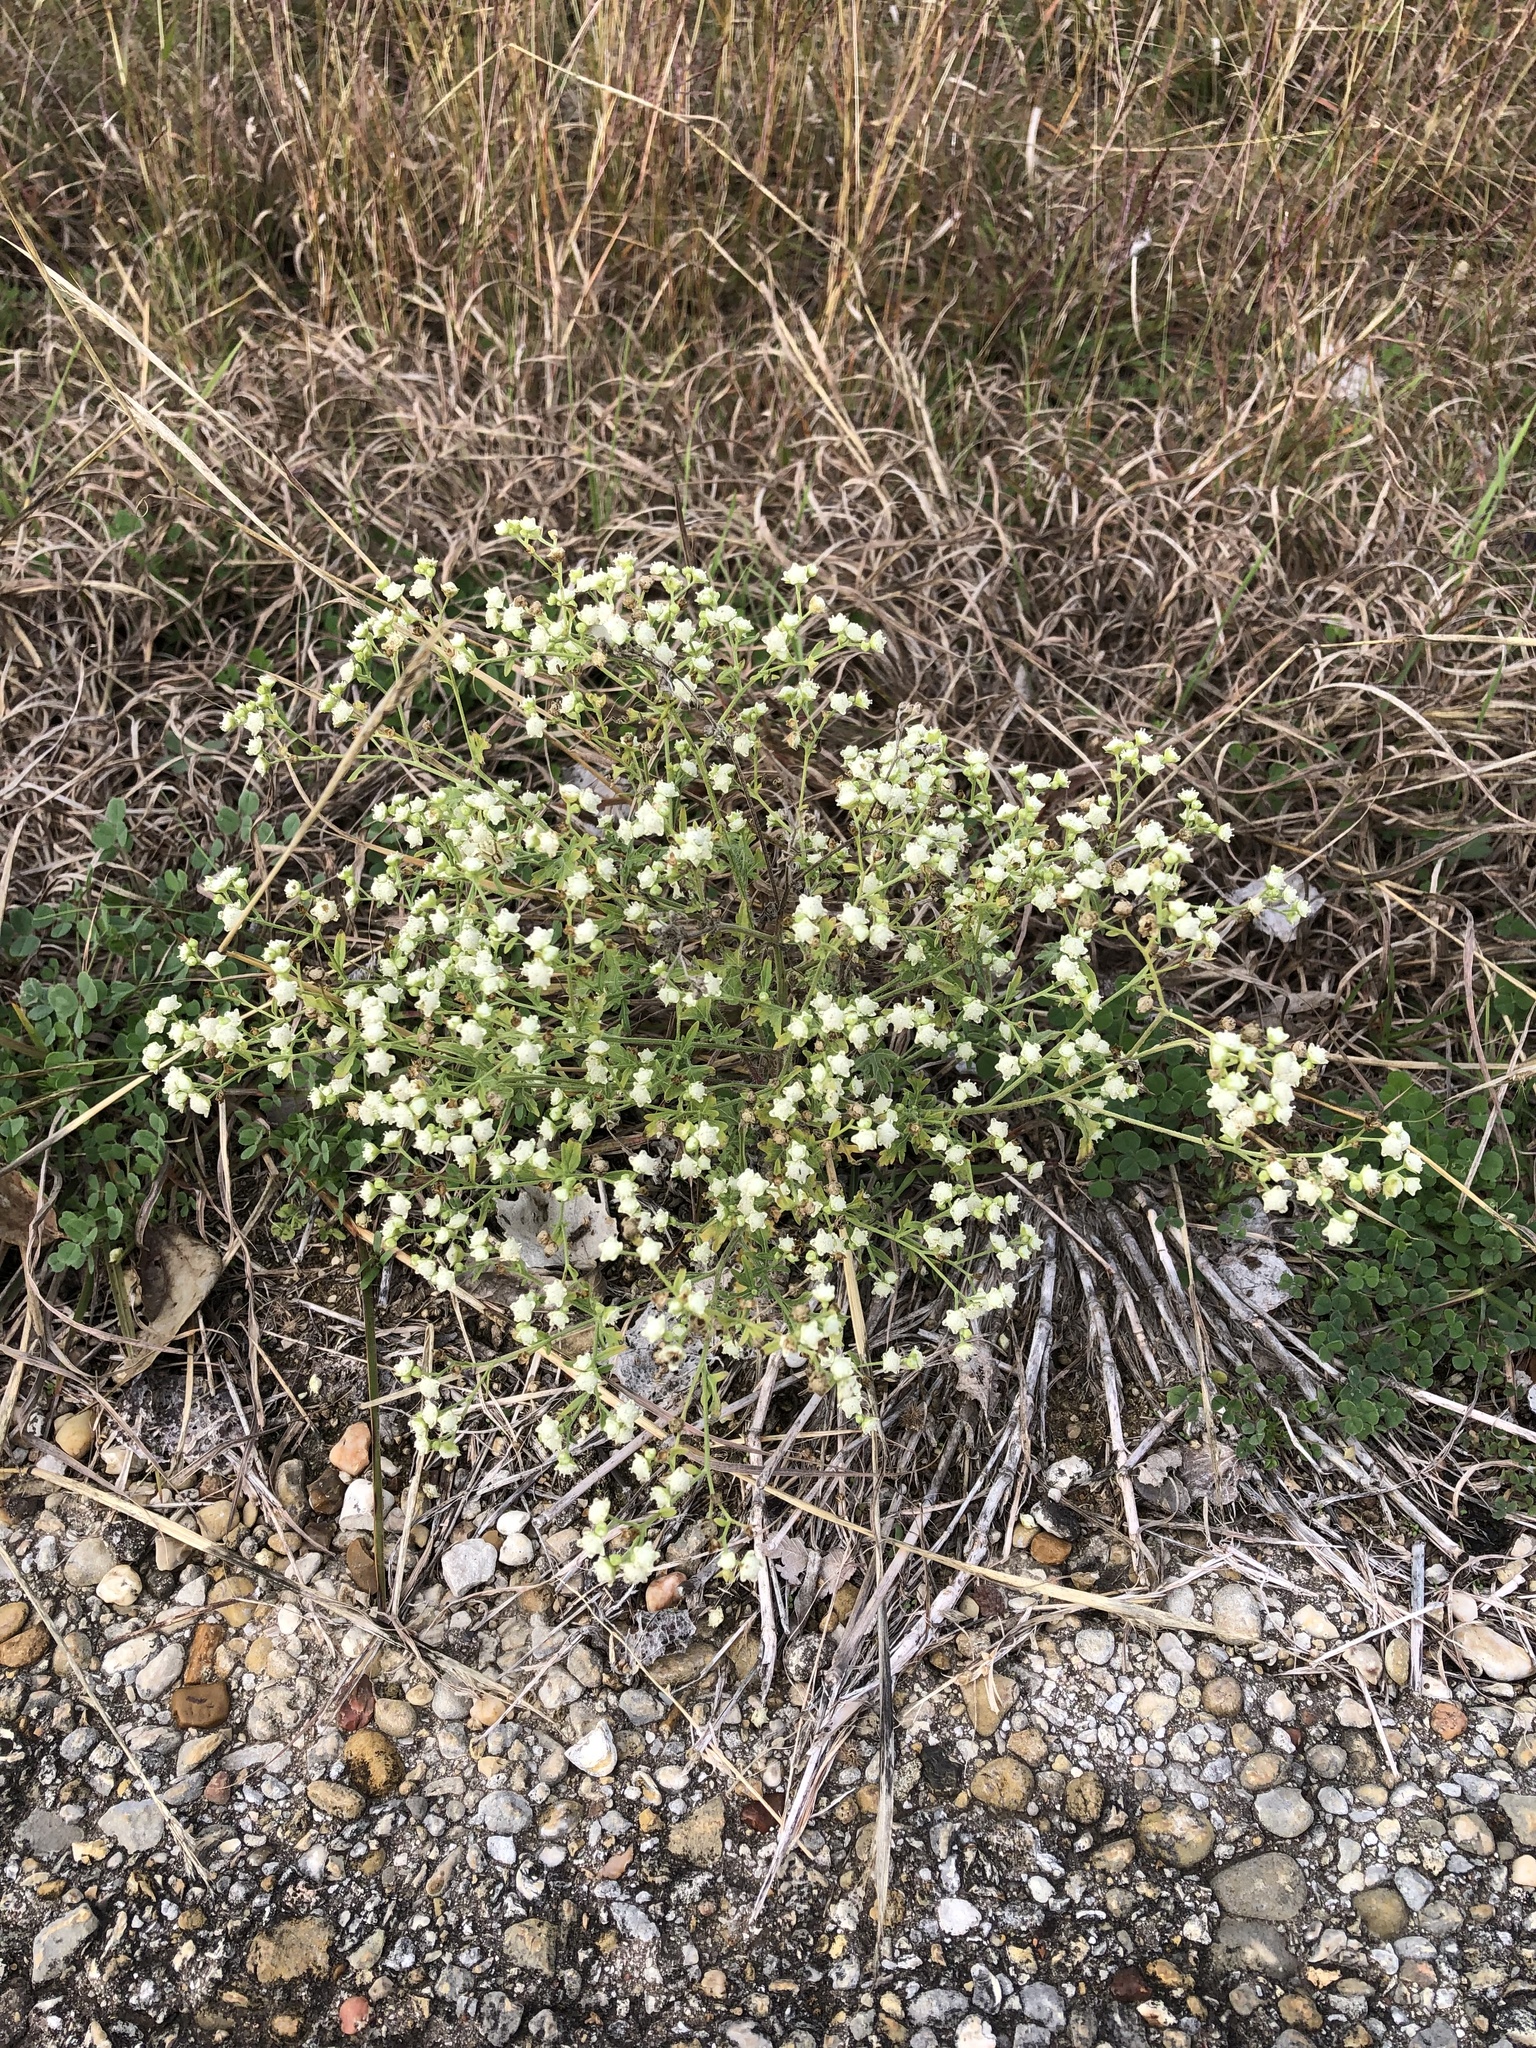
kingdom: Plantae
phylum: Tracheophyta
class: Magnoliopsida
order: Asterales
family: Asteraceae
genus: Parthenium
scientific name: Parthenium hysterophorus
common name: Santa maria feverfew
